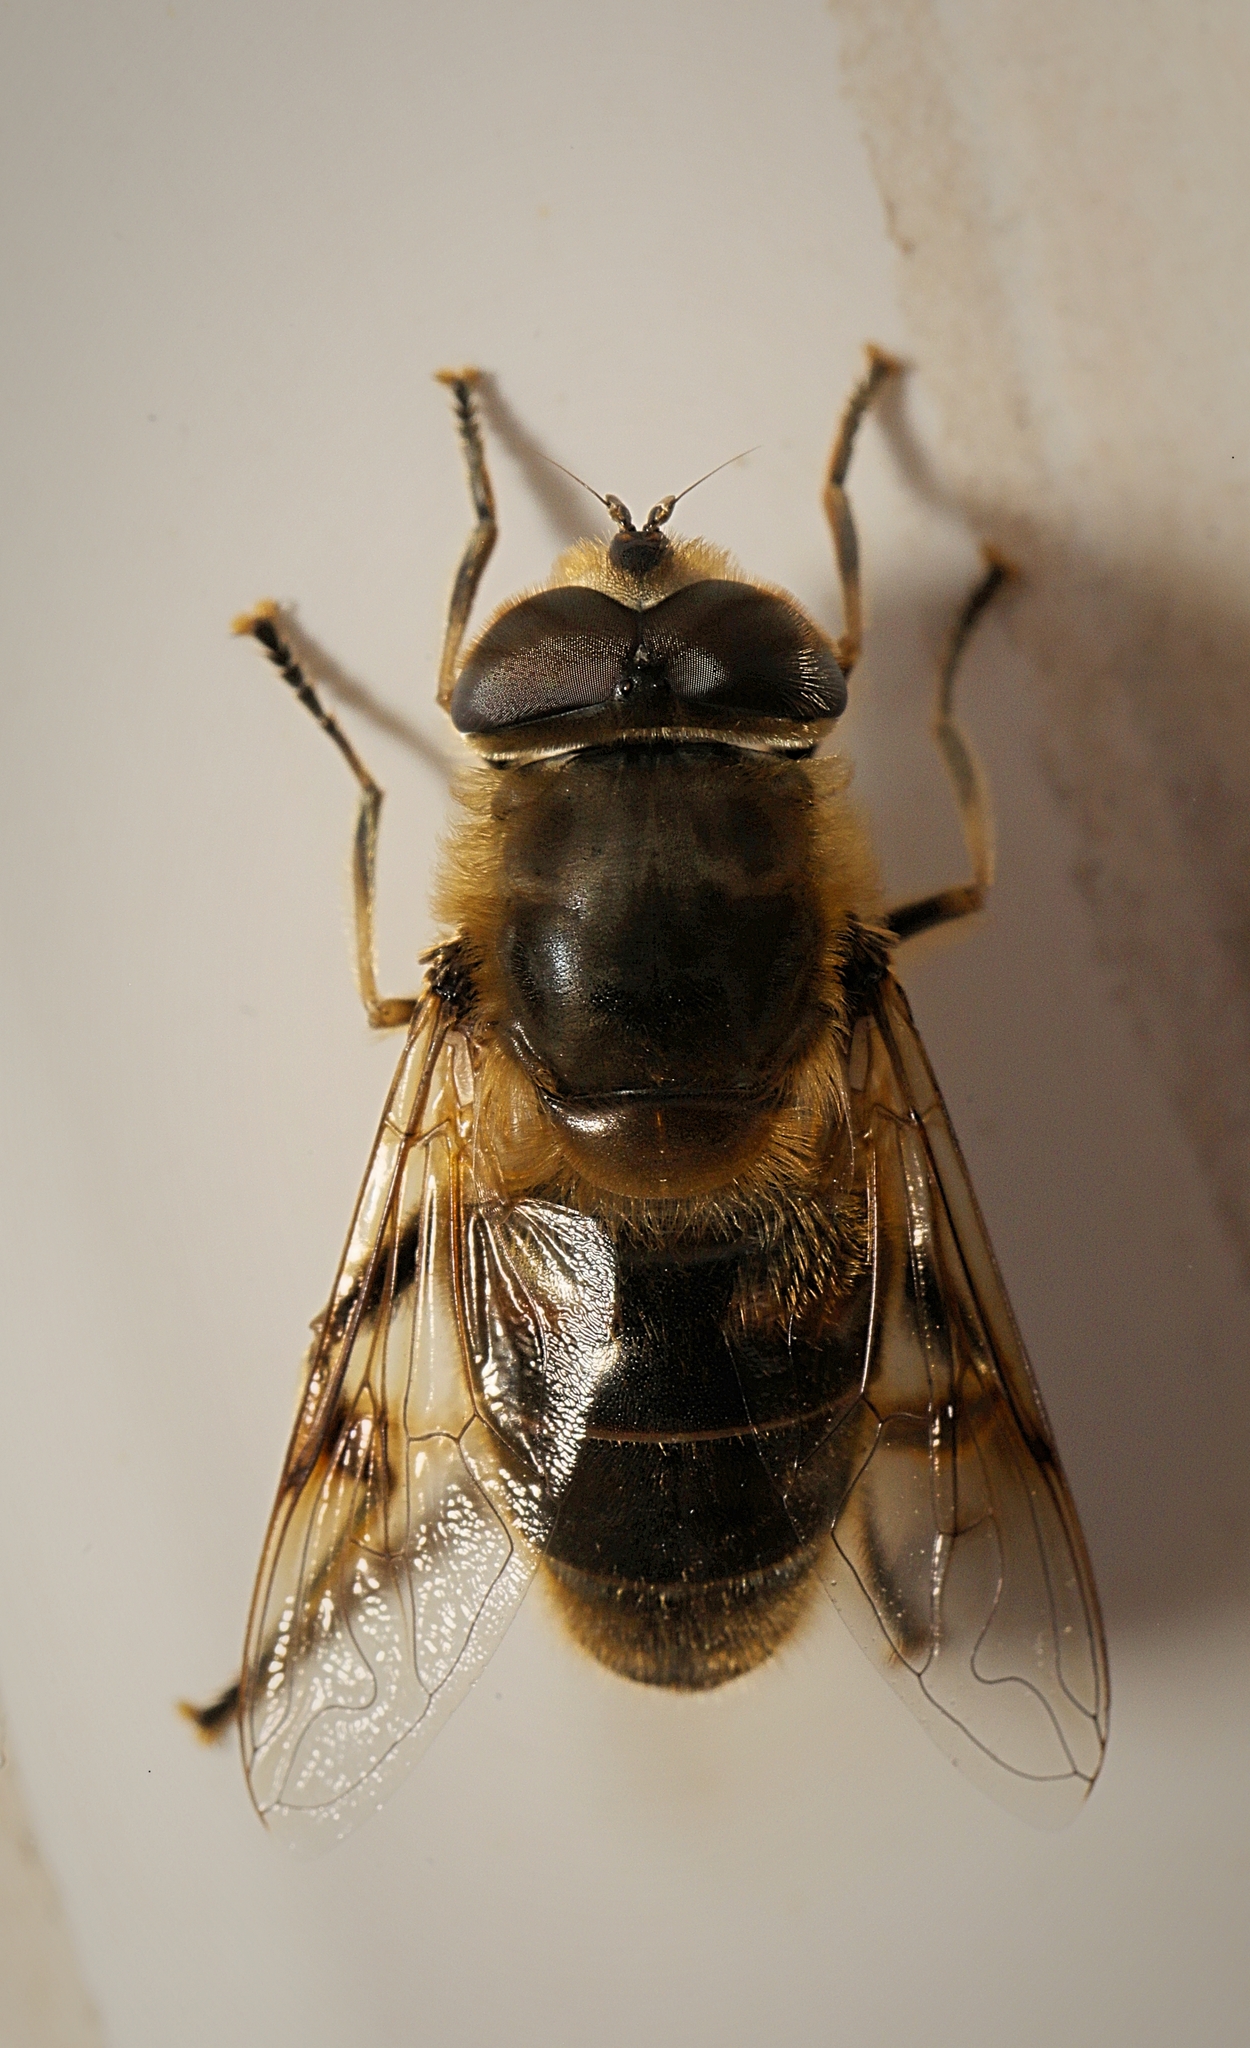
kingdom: Animalia
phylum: Arthropoda
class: Insecta
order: Diptera
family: Syrphidae
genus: Eristalis
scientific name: Eristalis tenax
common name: Drone fly
